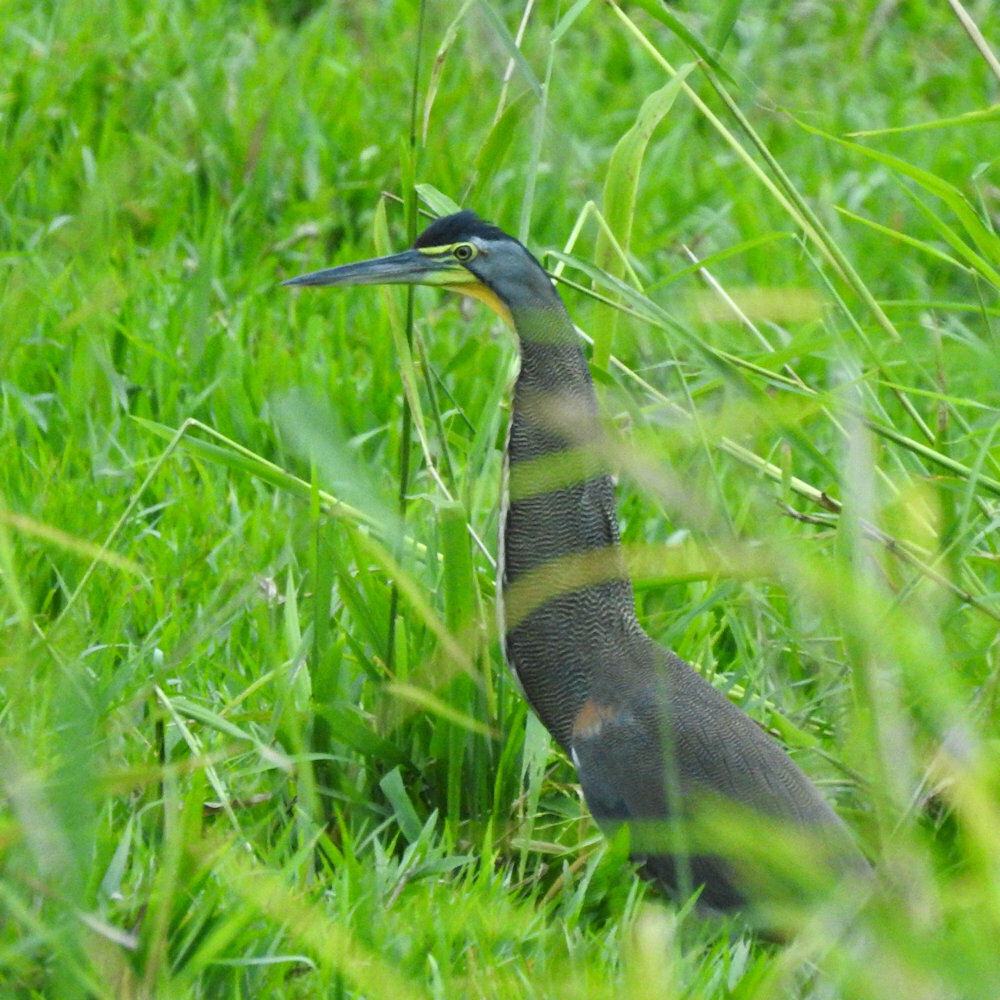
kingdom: Animalia
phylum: Chordata
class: Aves
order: Pelecaniformes
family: Ardeidae
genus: Tigrisoma
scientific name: Tigrisoma mexicanum
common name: Bare-throated tiger-heron
